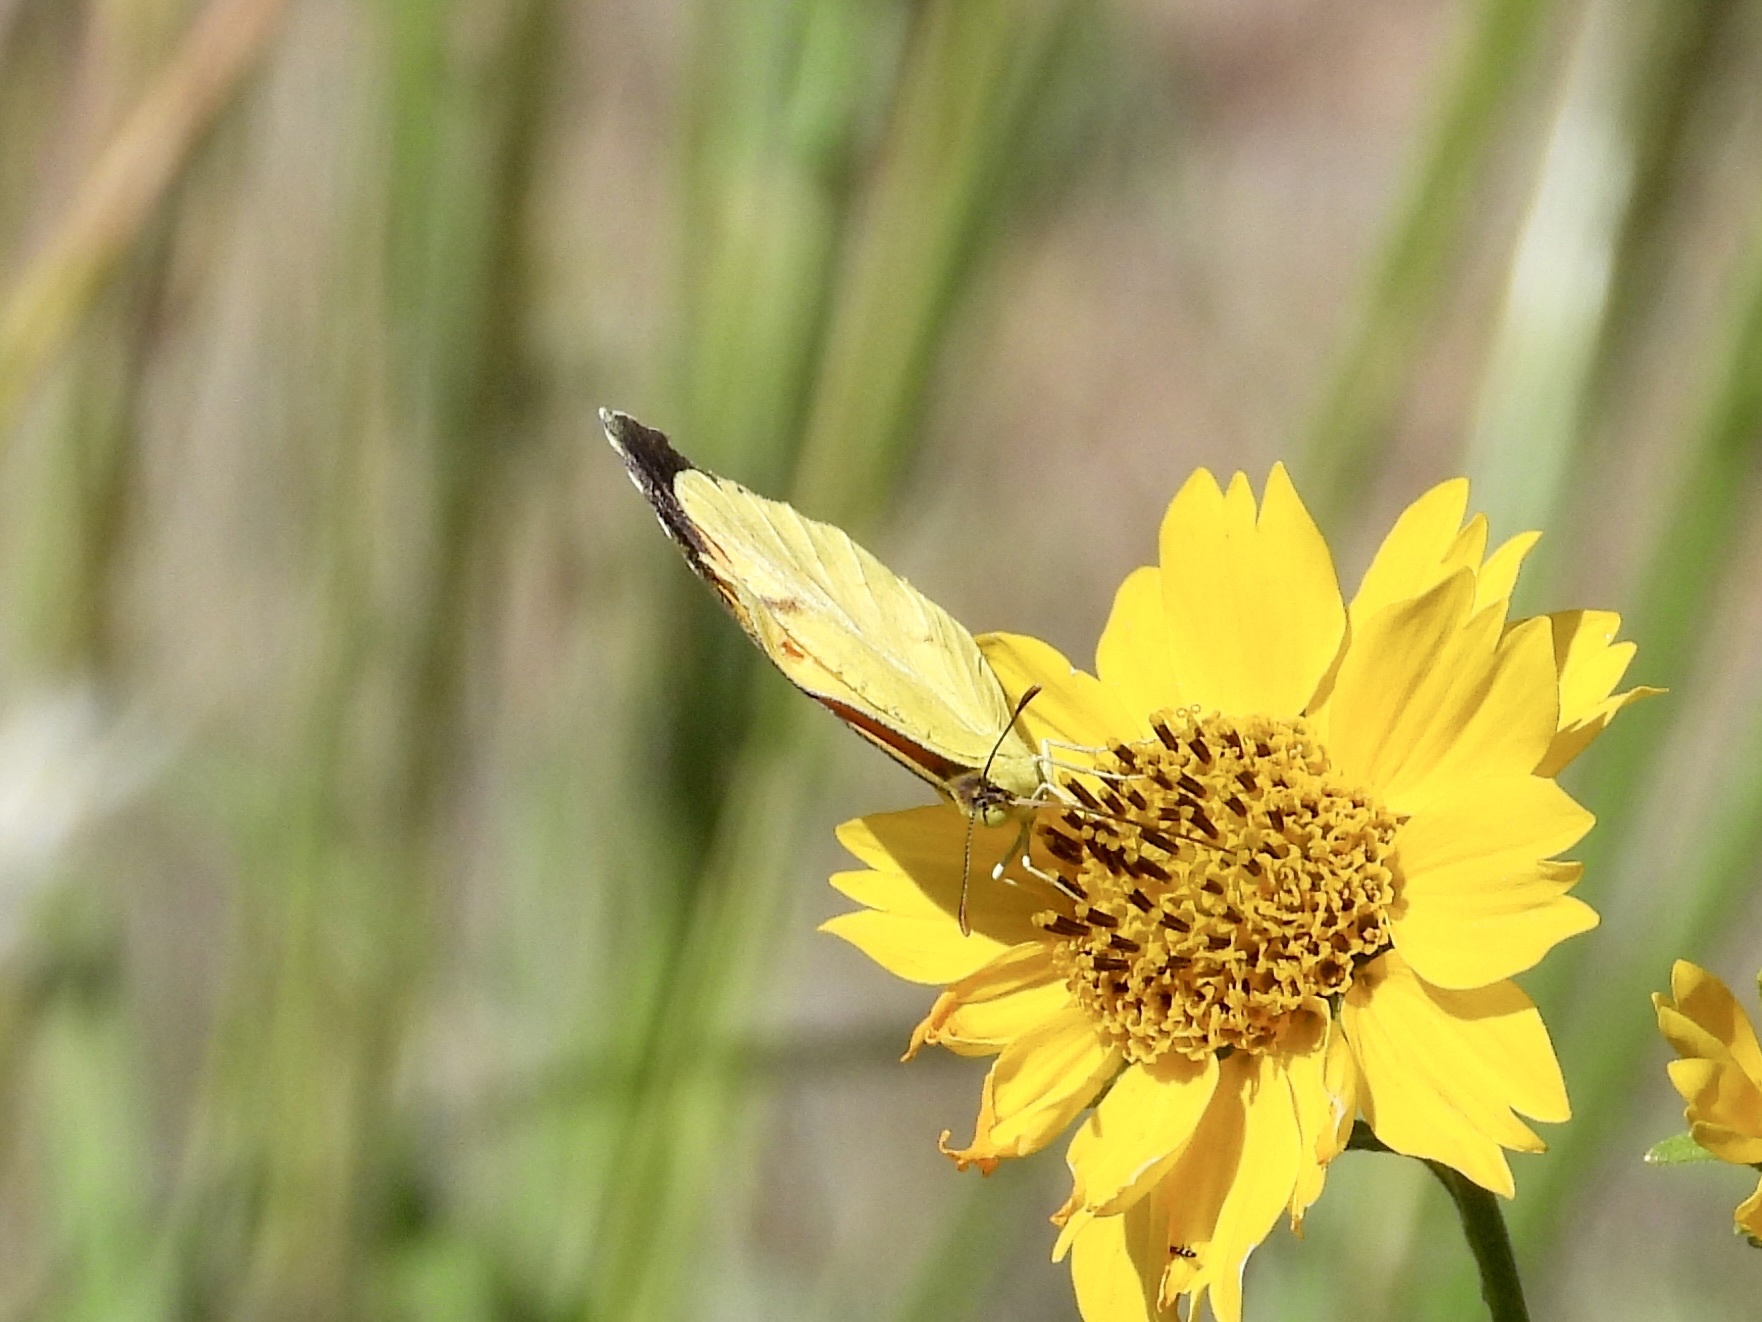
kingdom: Animalia
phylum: Arthropoda
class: Insecta
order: Lepidoptera
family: Pieridae
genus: Abaeis
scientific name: Abaeis nicippe
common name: Sleepy orange
